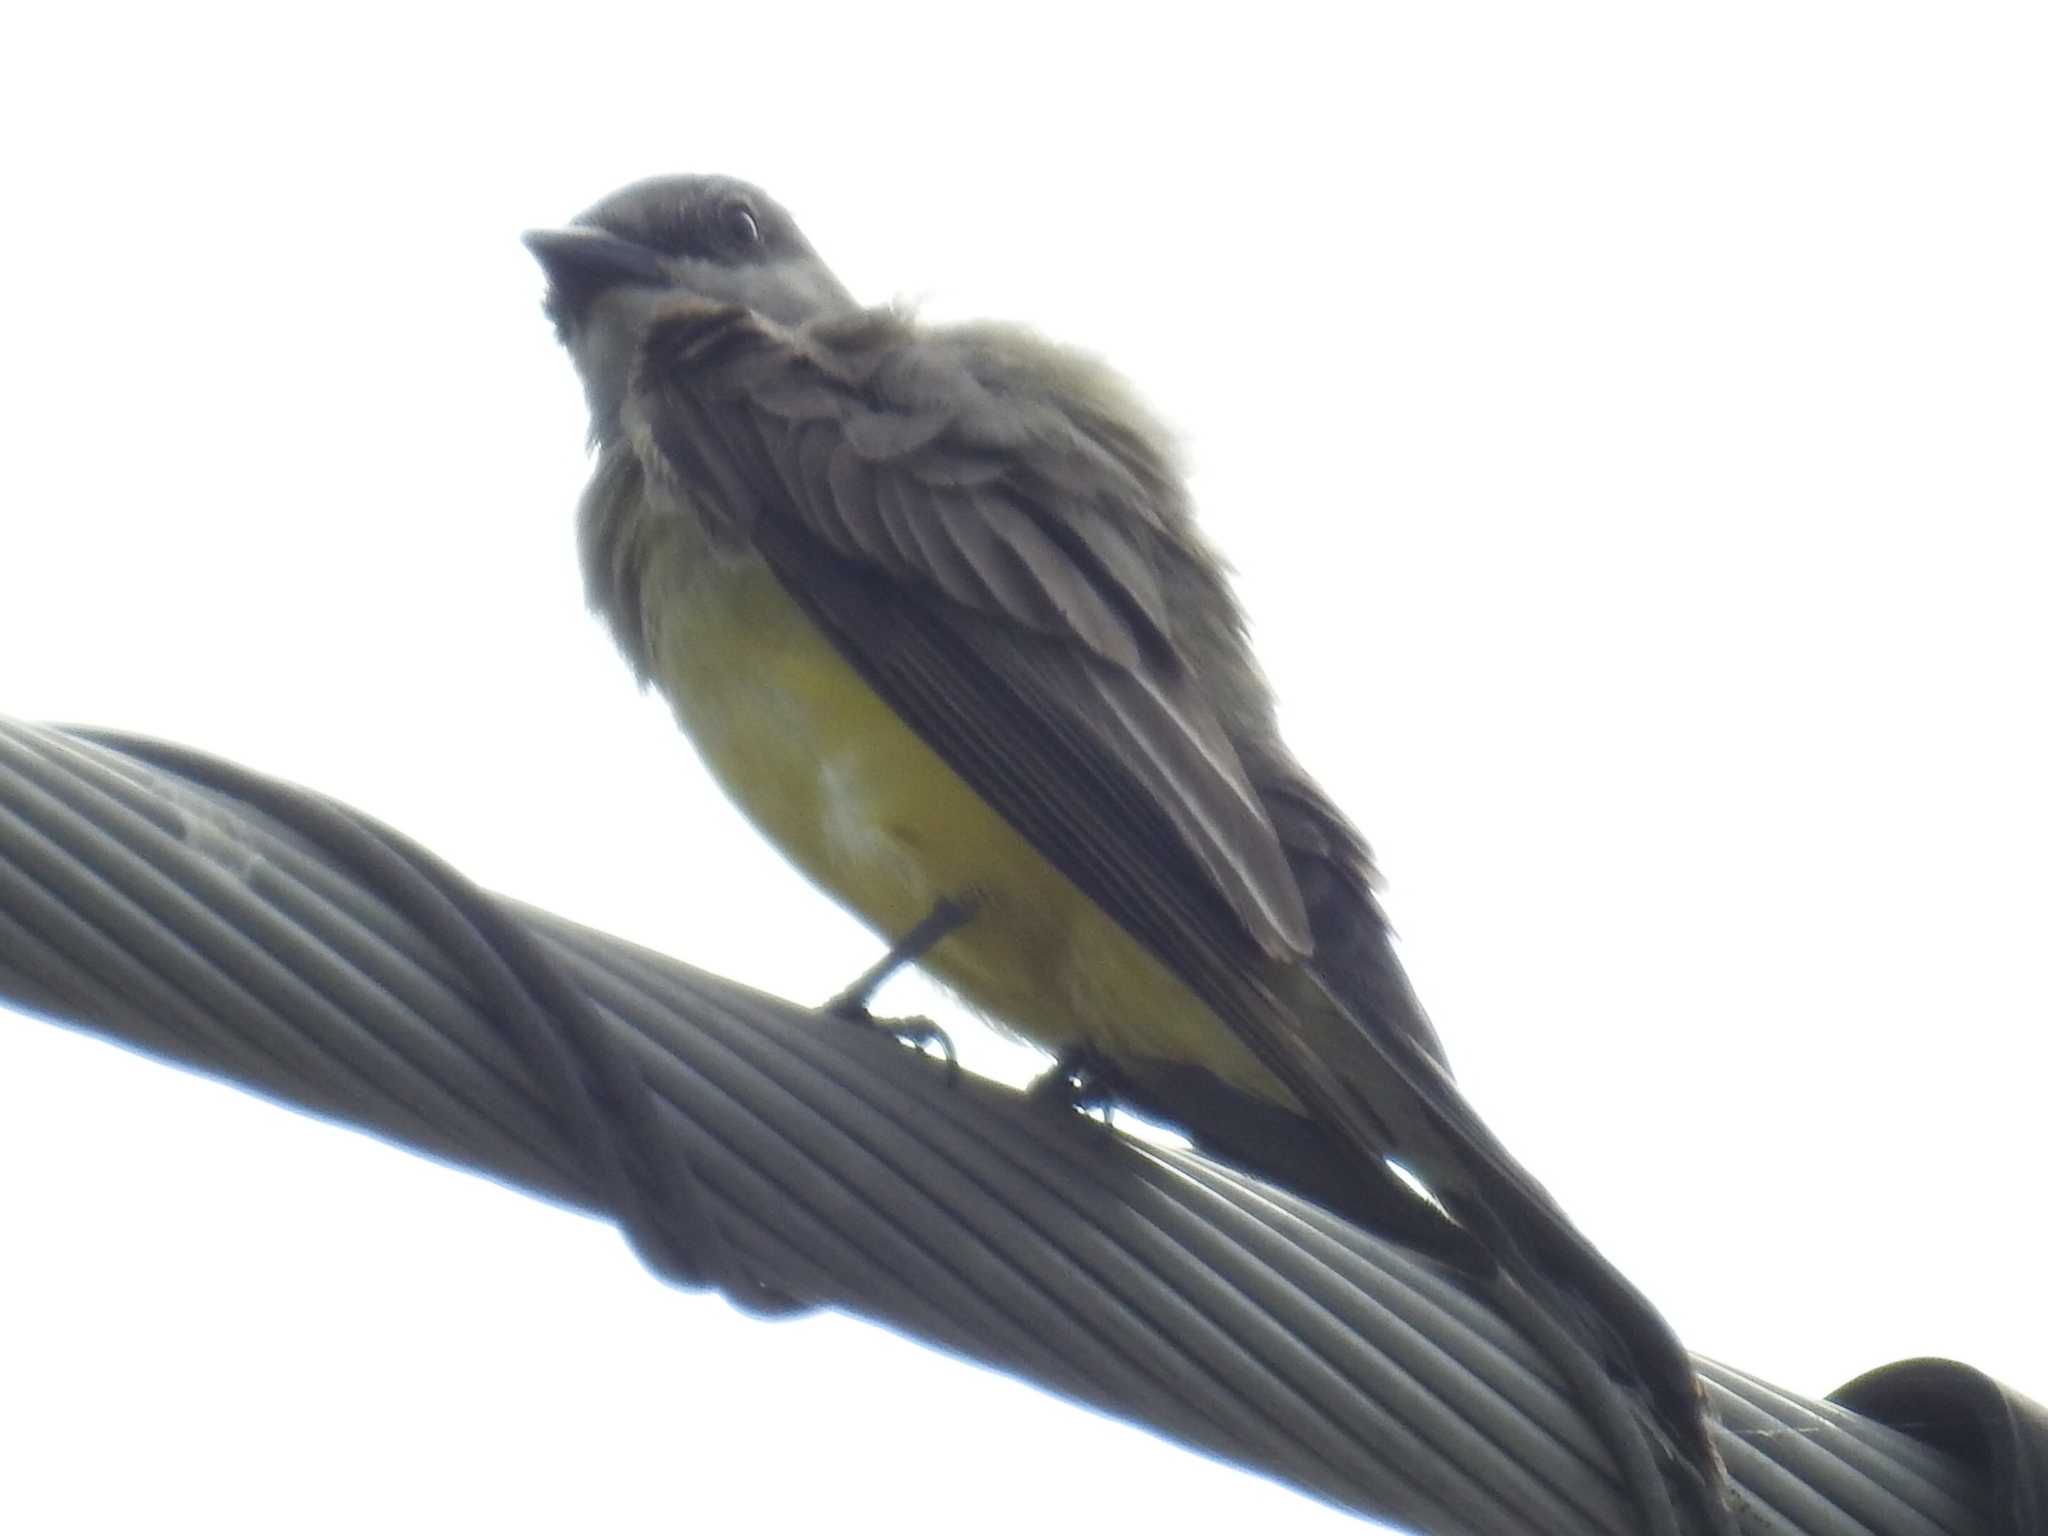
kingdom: Animalia
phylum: Chordata
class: Aves
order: Passeriformes
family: Tyrannidae
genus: Tyrannus
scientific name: Tyrannus verticalis
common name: Western kingbird
